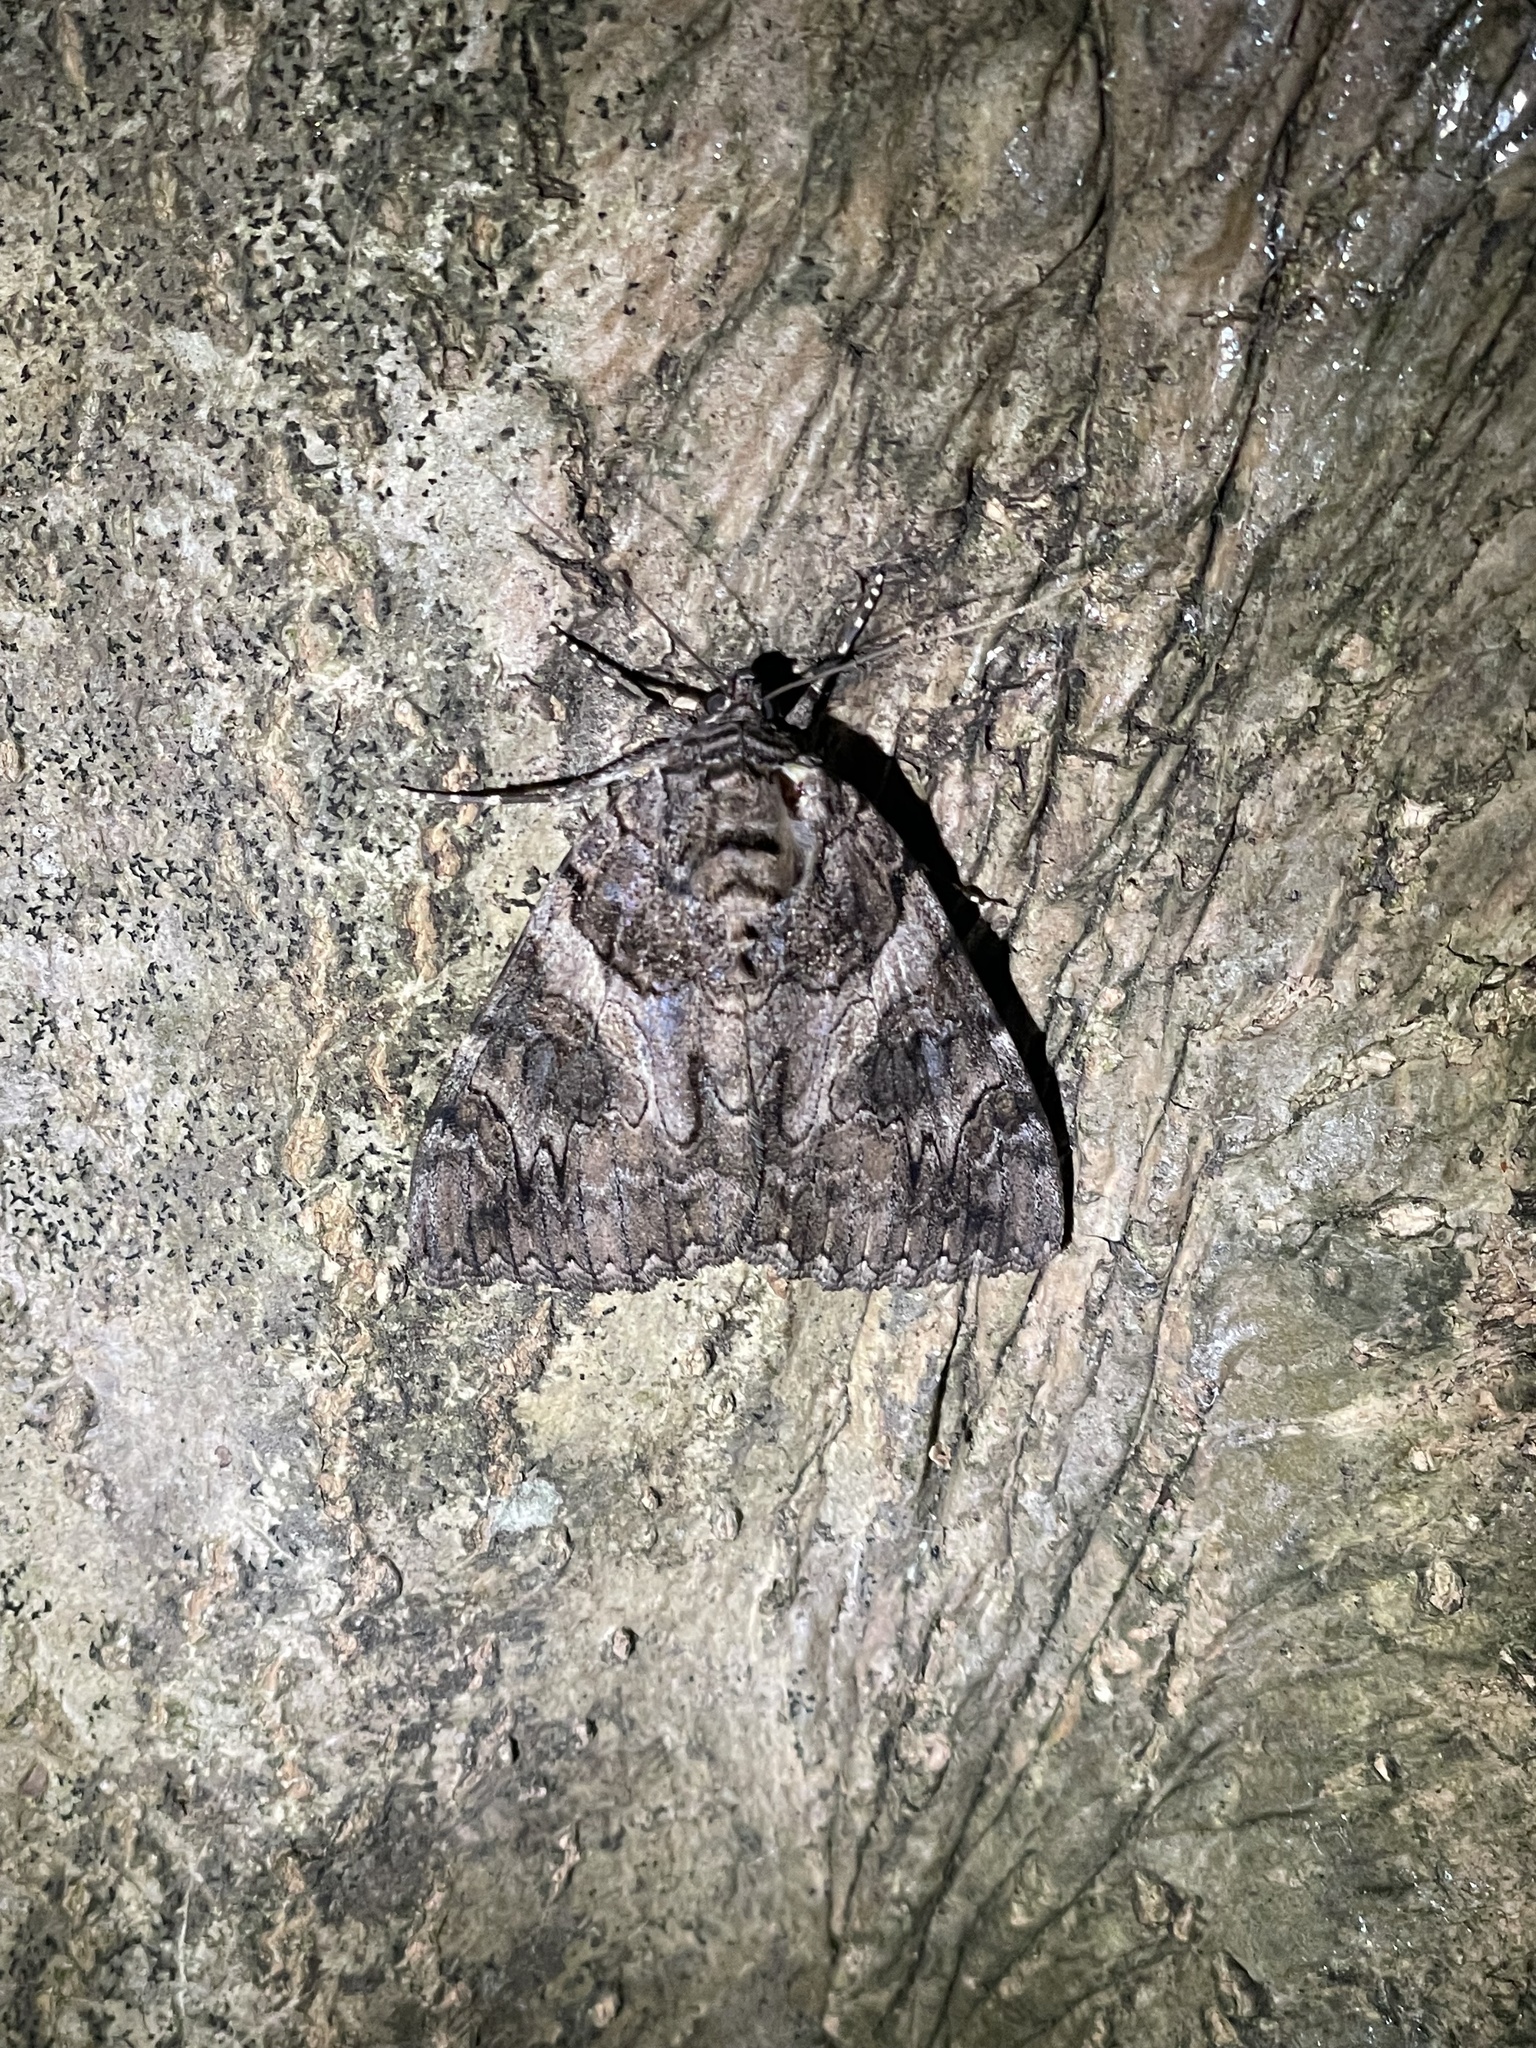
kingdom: Animalia
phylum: Arthropoda
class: Insecta
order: Lepidoptera
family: Erebidae
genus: Catocala
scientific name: Catocala piatrix
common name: The penitent underwing
